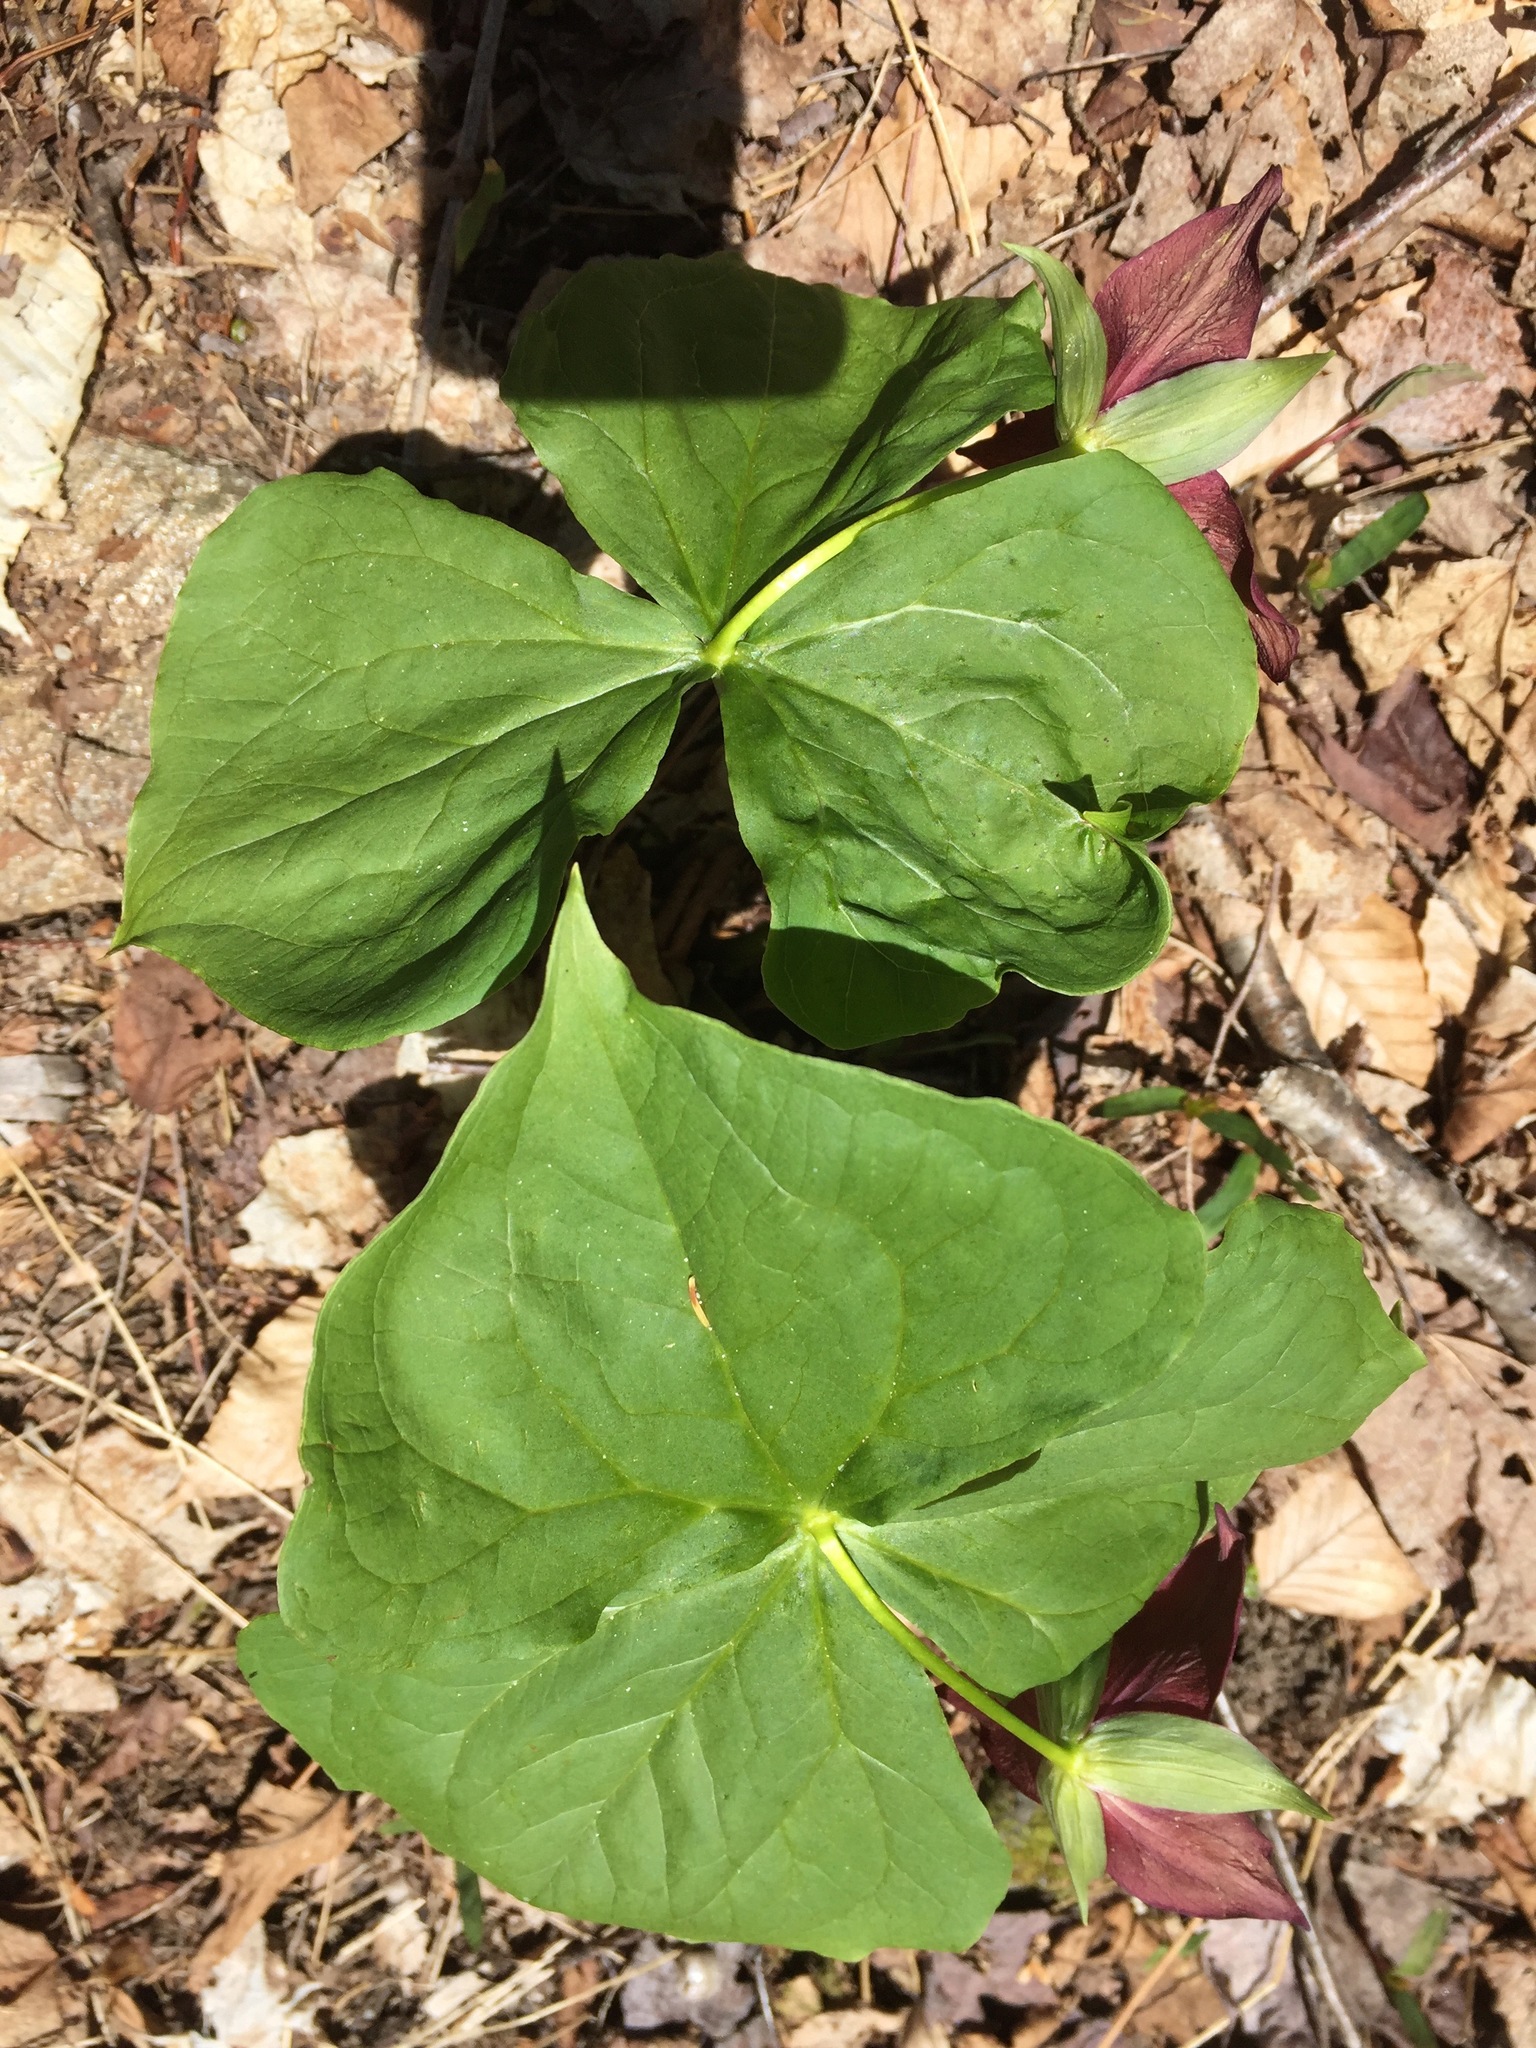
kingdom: Plantae
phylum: Tracheophyta
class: Liliopsida
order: Liliales
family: Melanthiaceae
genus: Trillium
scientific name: Trillium erectum
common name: Purple trillium
